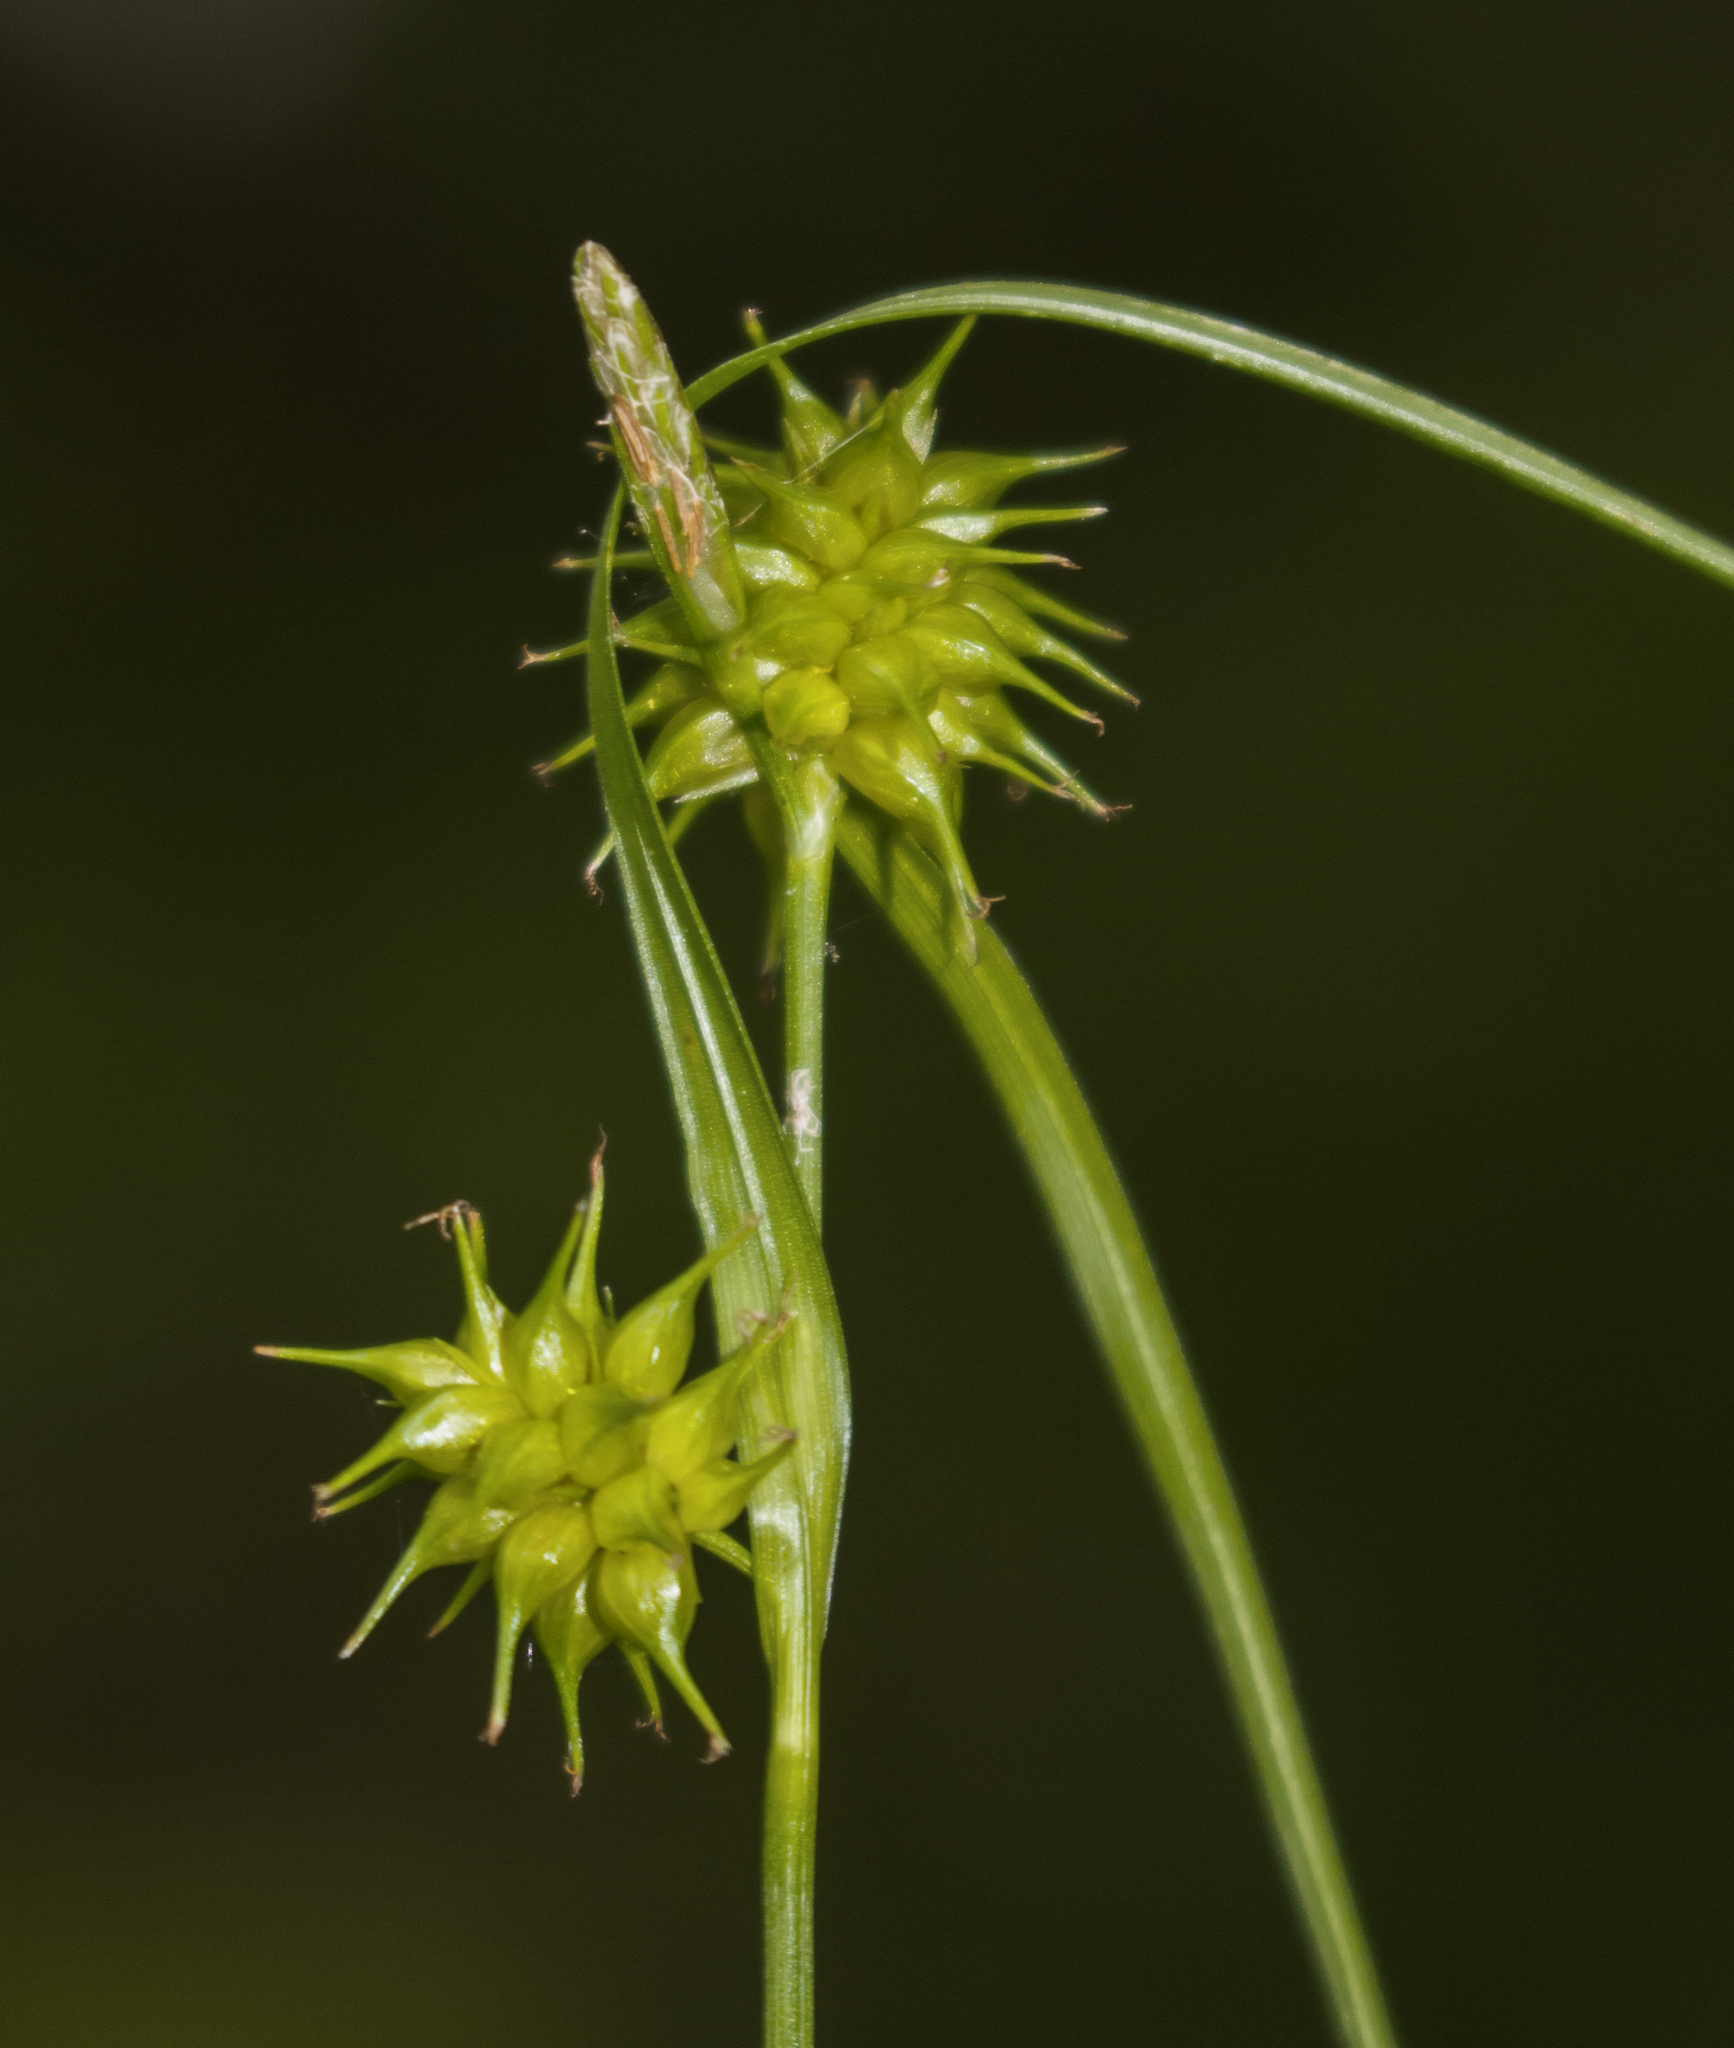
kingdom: Plantae
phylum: Tracheophyta
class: Liliopsida
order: Poales
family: Cyperaceae
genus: Carex
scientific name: Carex flava
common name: Large yellow-sedge
